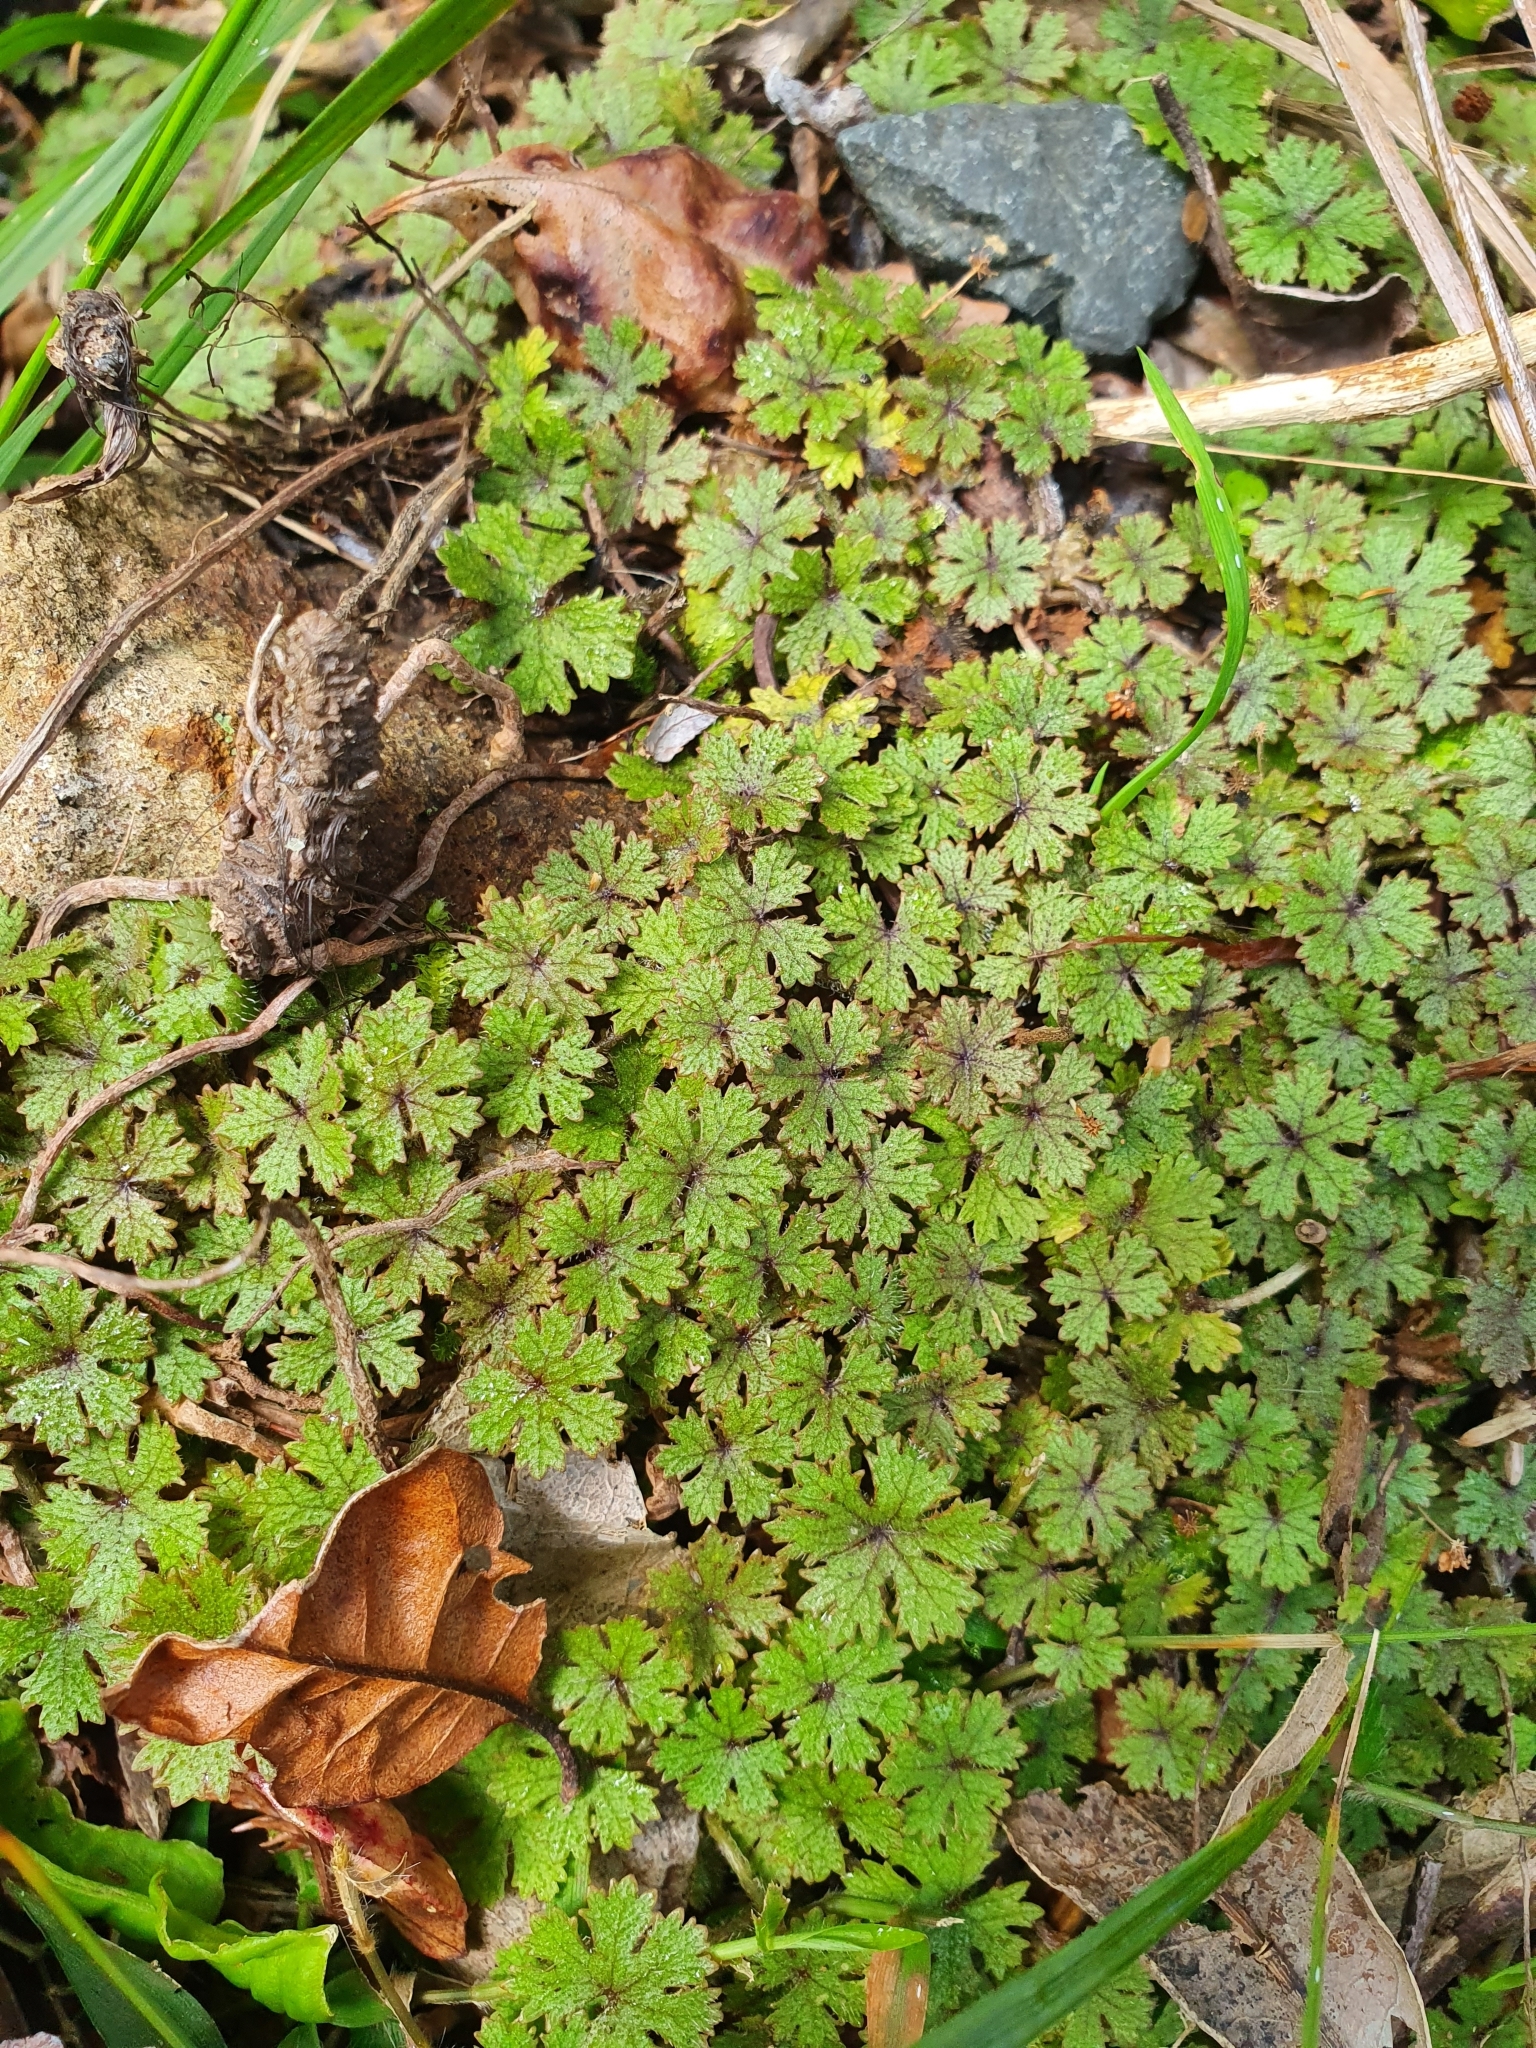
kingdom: Plantae
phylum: Tracheophyta
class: Magnoliopsida
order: Apiales
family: Araliaceae
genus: Hydrocotyle
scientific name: Hydrocotyle dissecta
